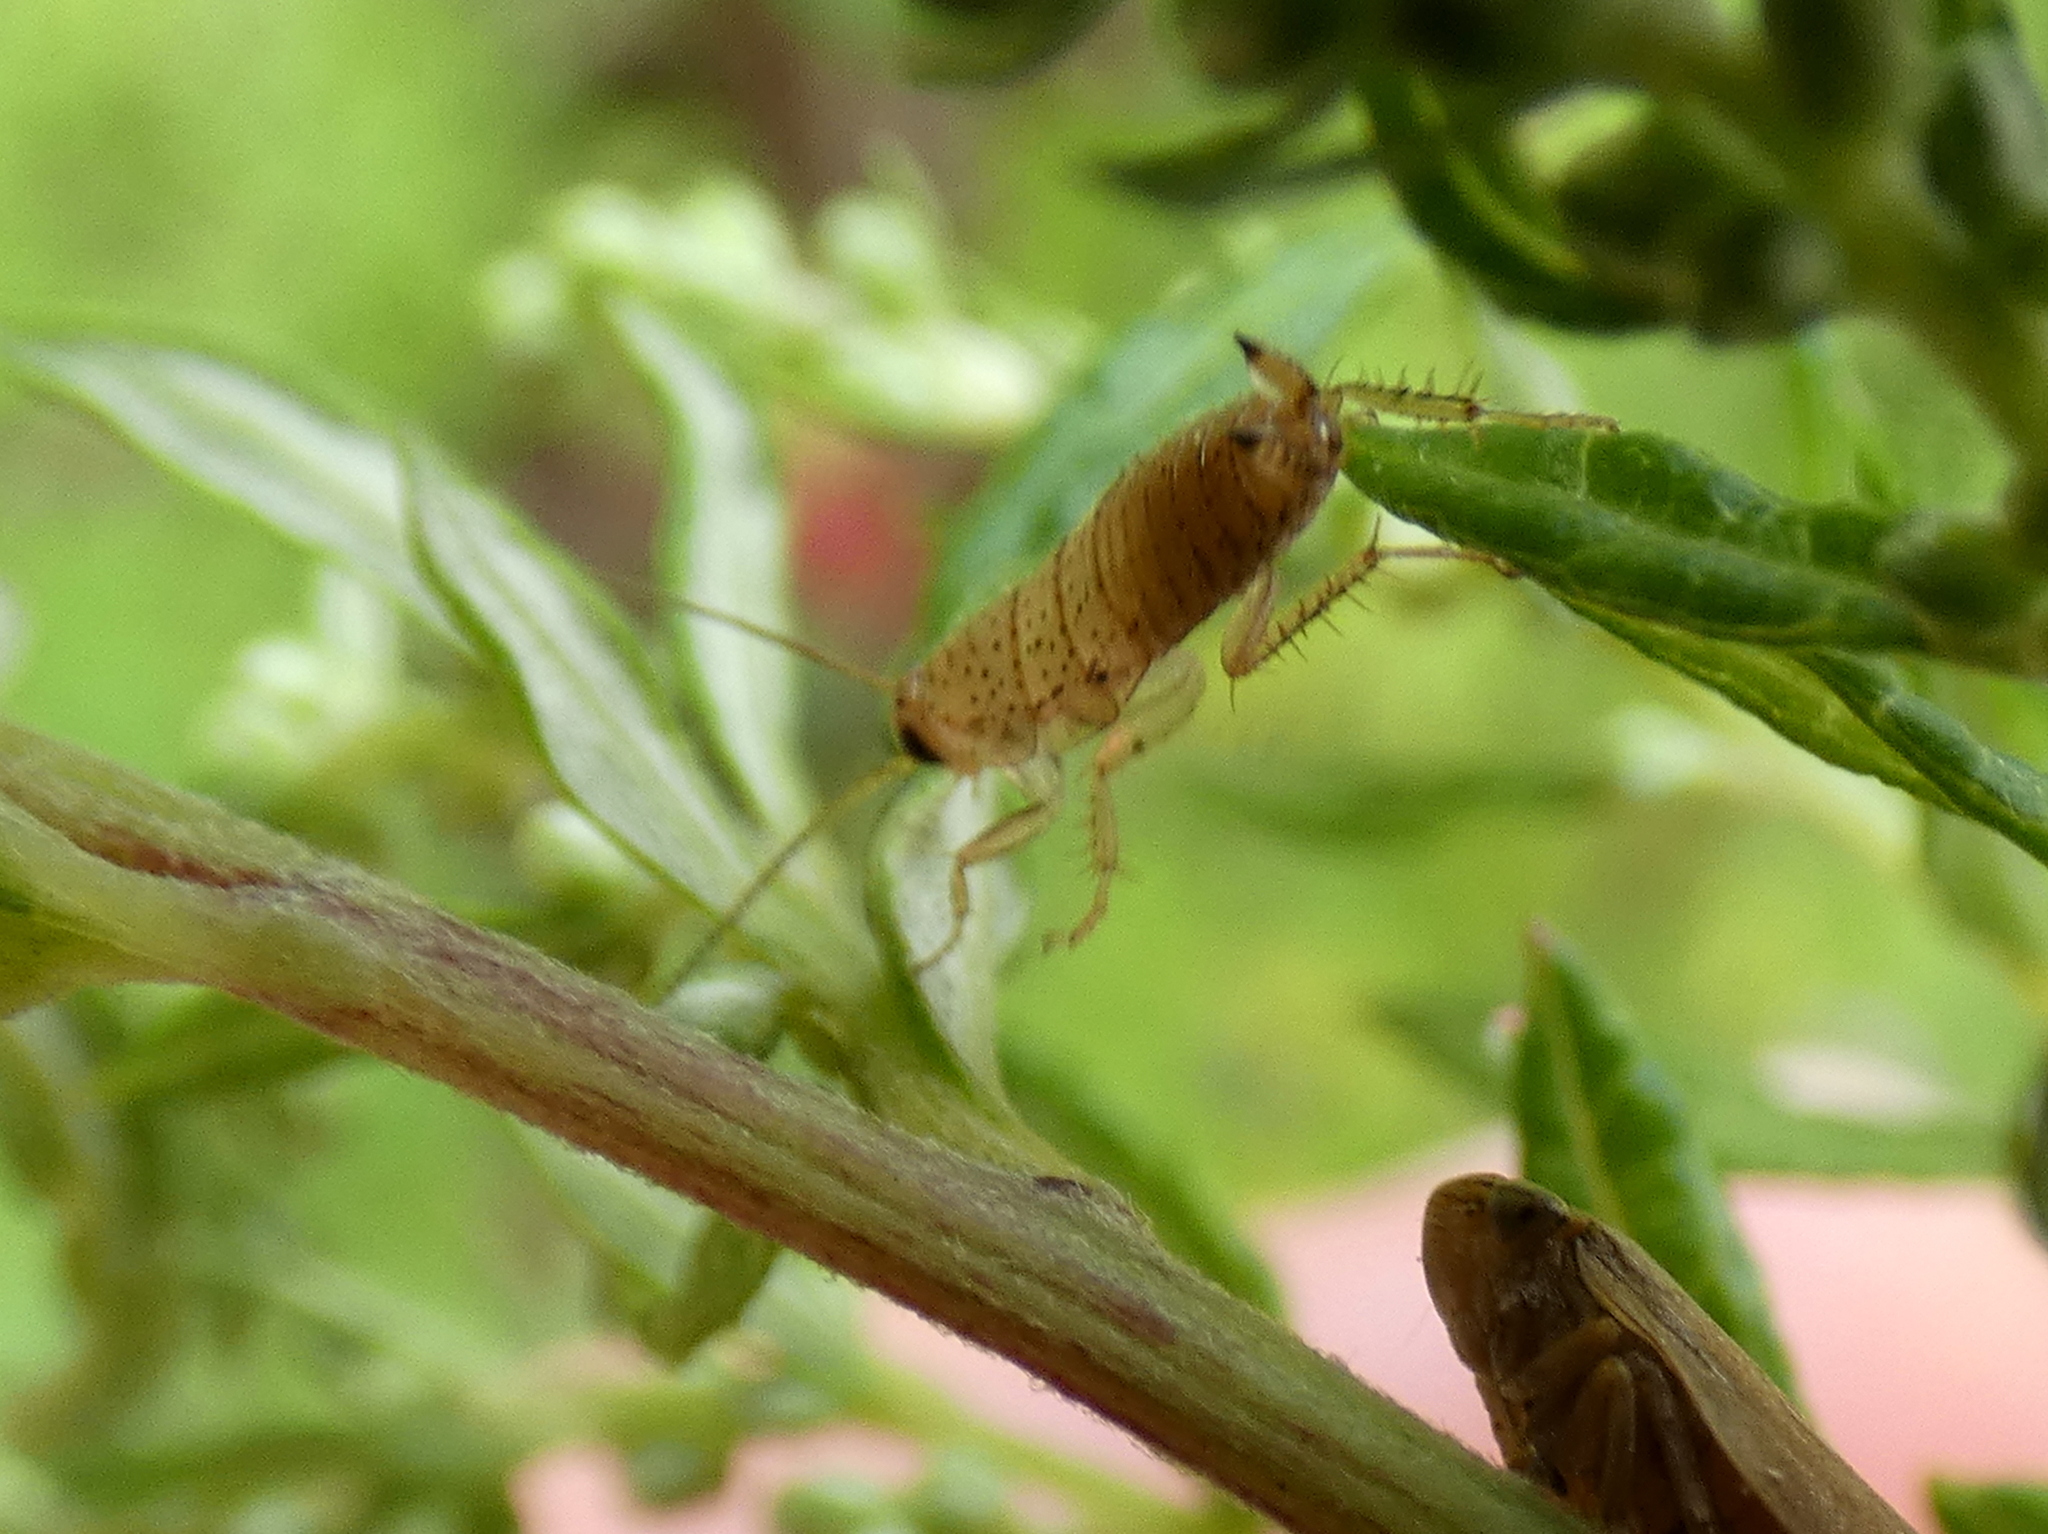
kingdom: Animalia
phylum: Arthropoda
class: Insecta
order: Blattodea
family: Ectobiidae
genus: Ectobius
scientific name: Ectobius pallidus
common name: Tawny cockroach
